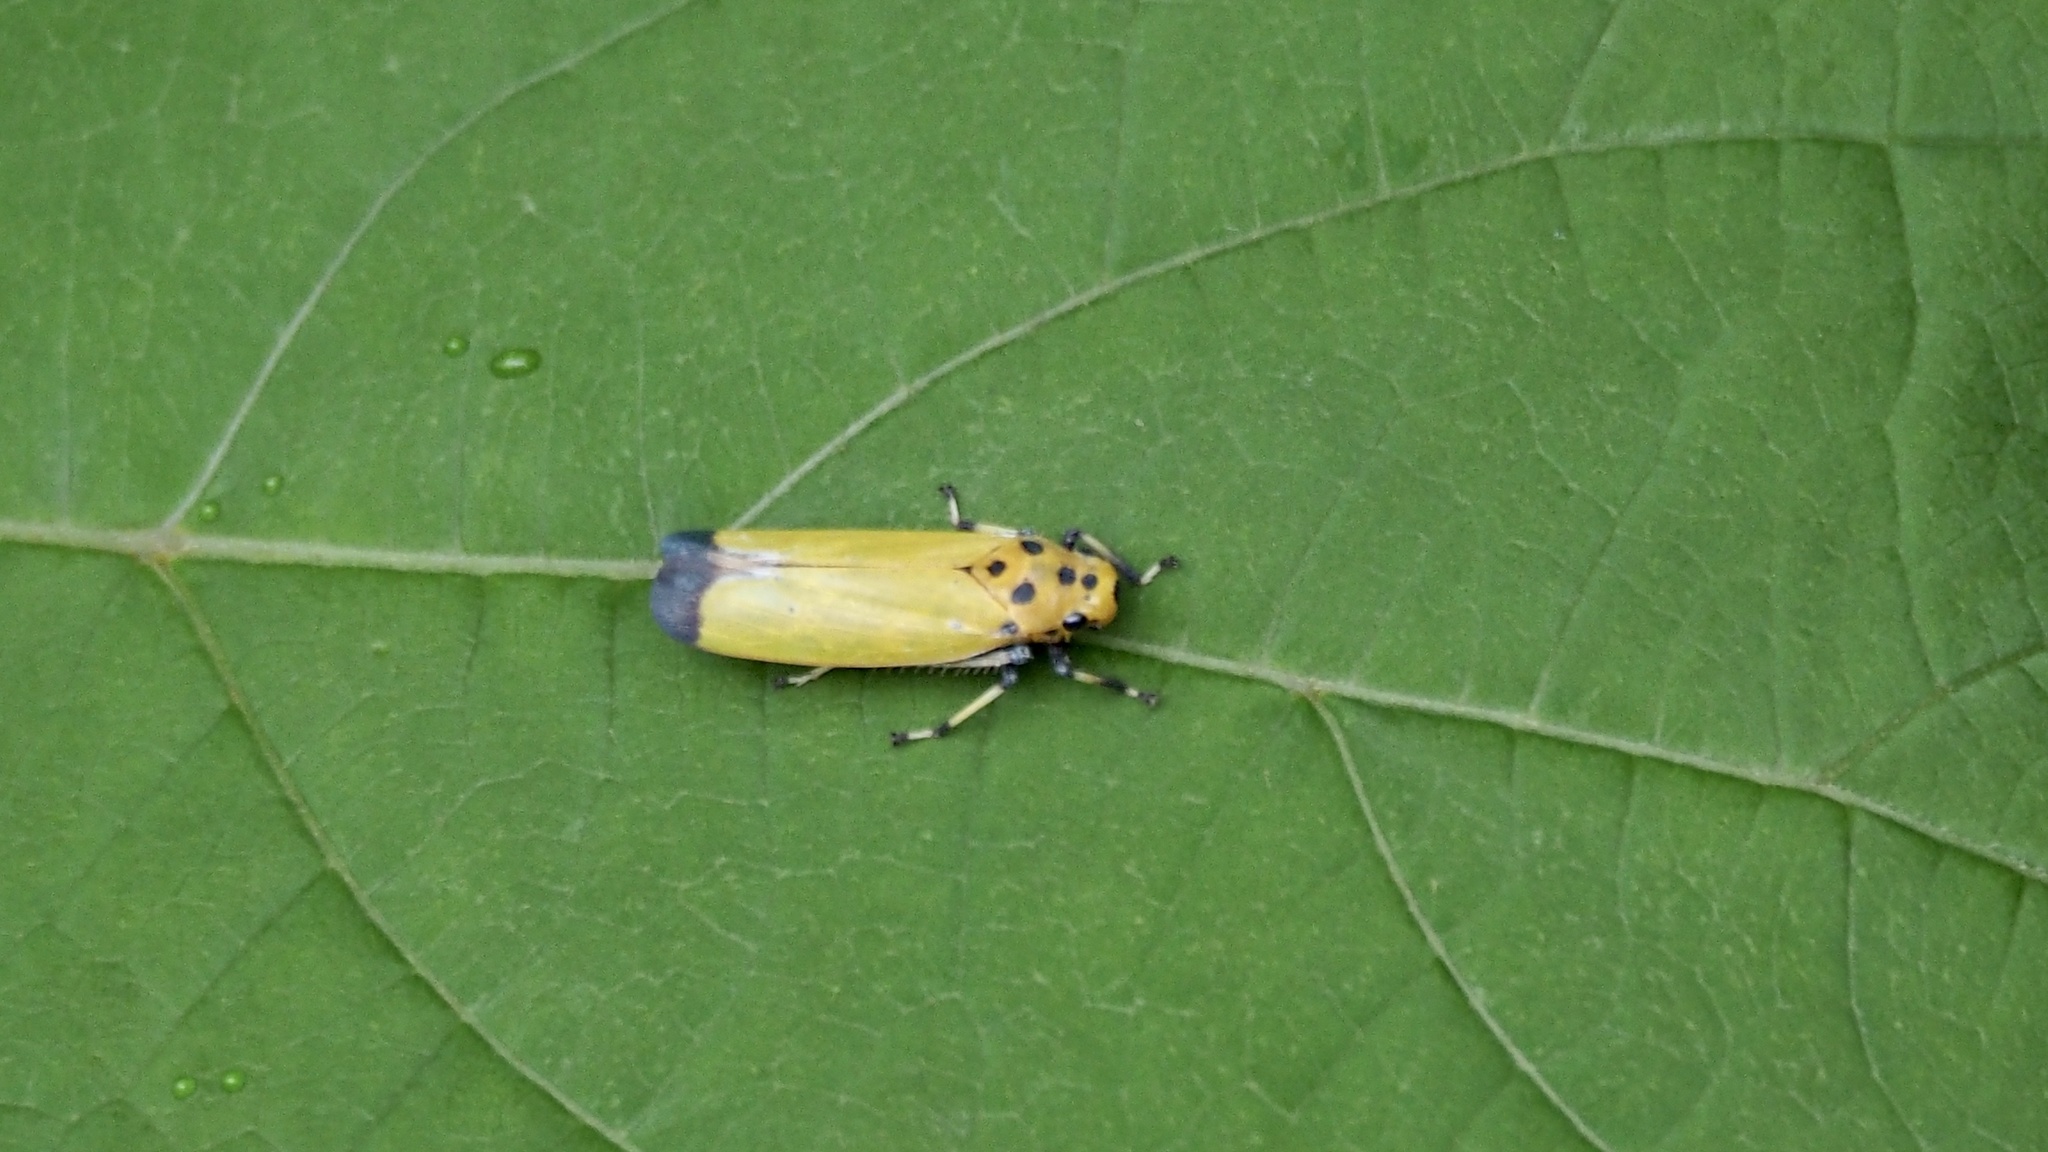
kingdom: Animalia
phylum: Arthropoda
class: Insecta
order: Hemiptera
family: Cicadellidae
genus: Bothrogonia
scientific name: Bothrogonia ferruginea
